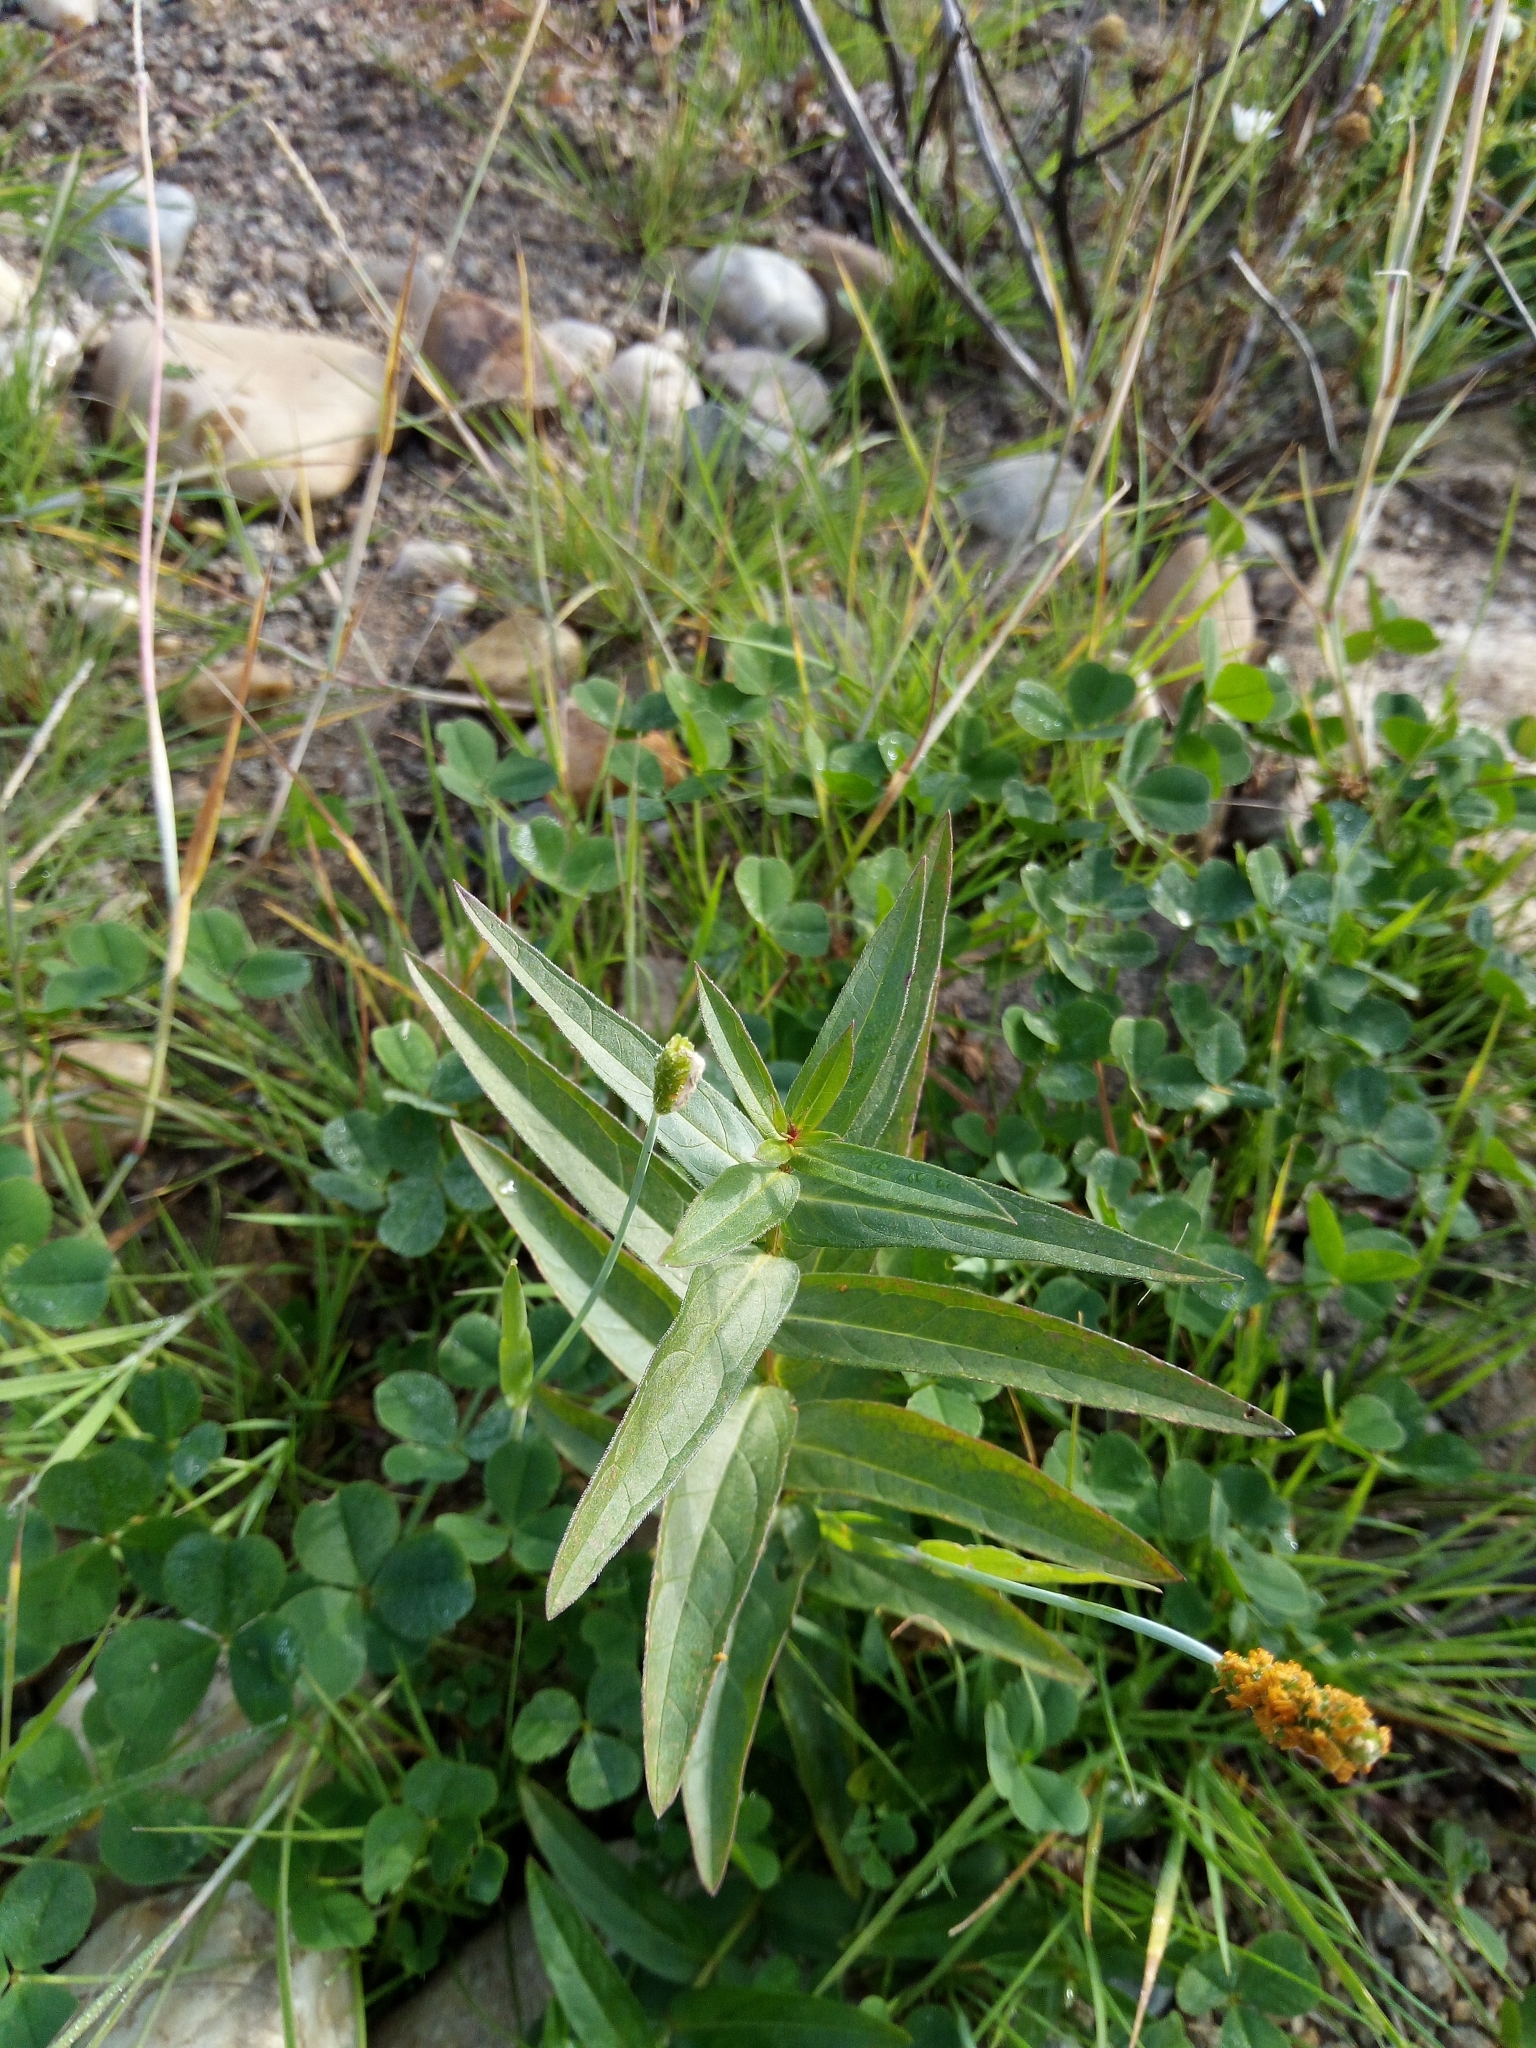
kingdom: Plantae
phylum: Tracheophyta
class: Magnoliopsida
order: Myrtales
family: Lythraceae
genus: Lythrum
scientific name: Lythrum salicaria
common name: Purple loosestrife
